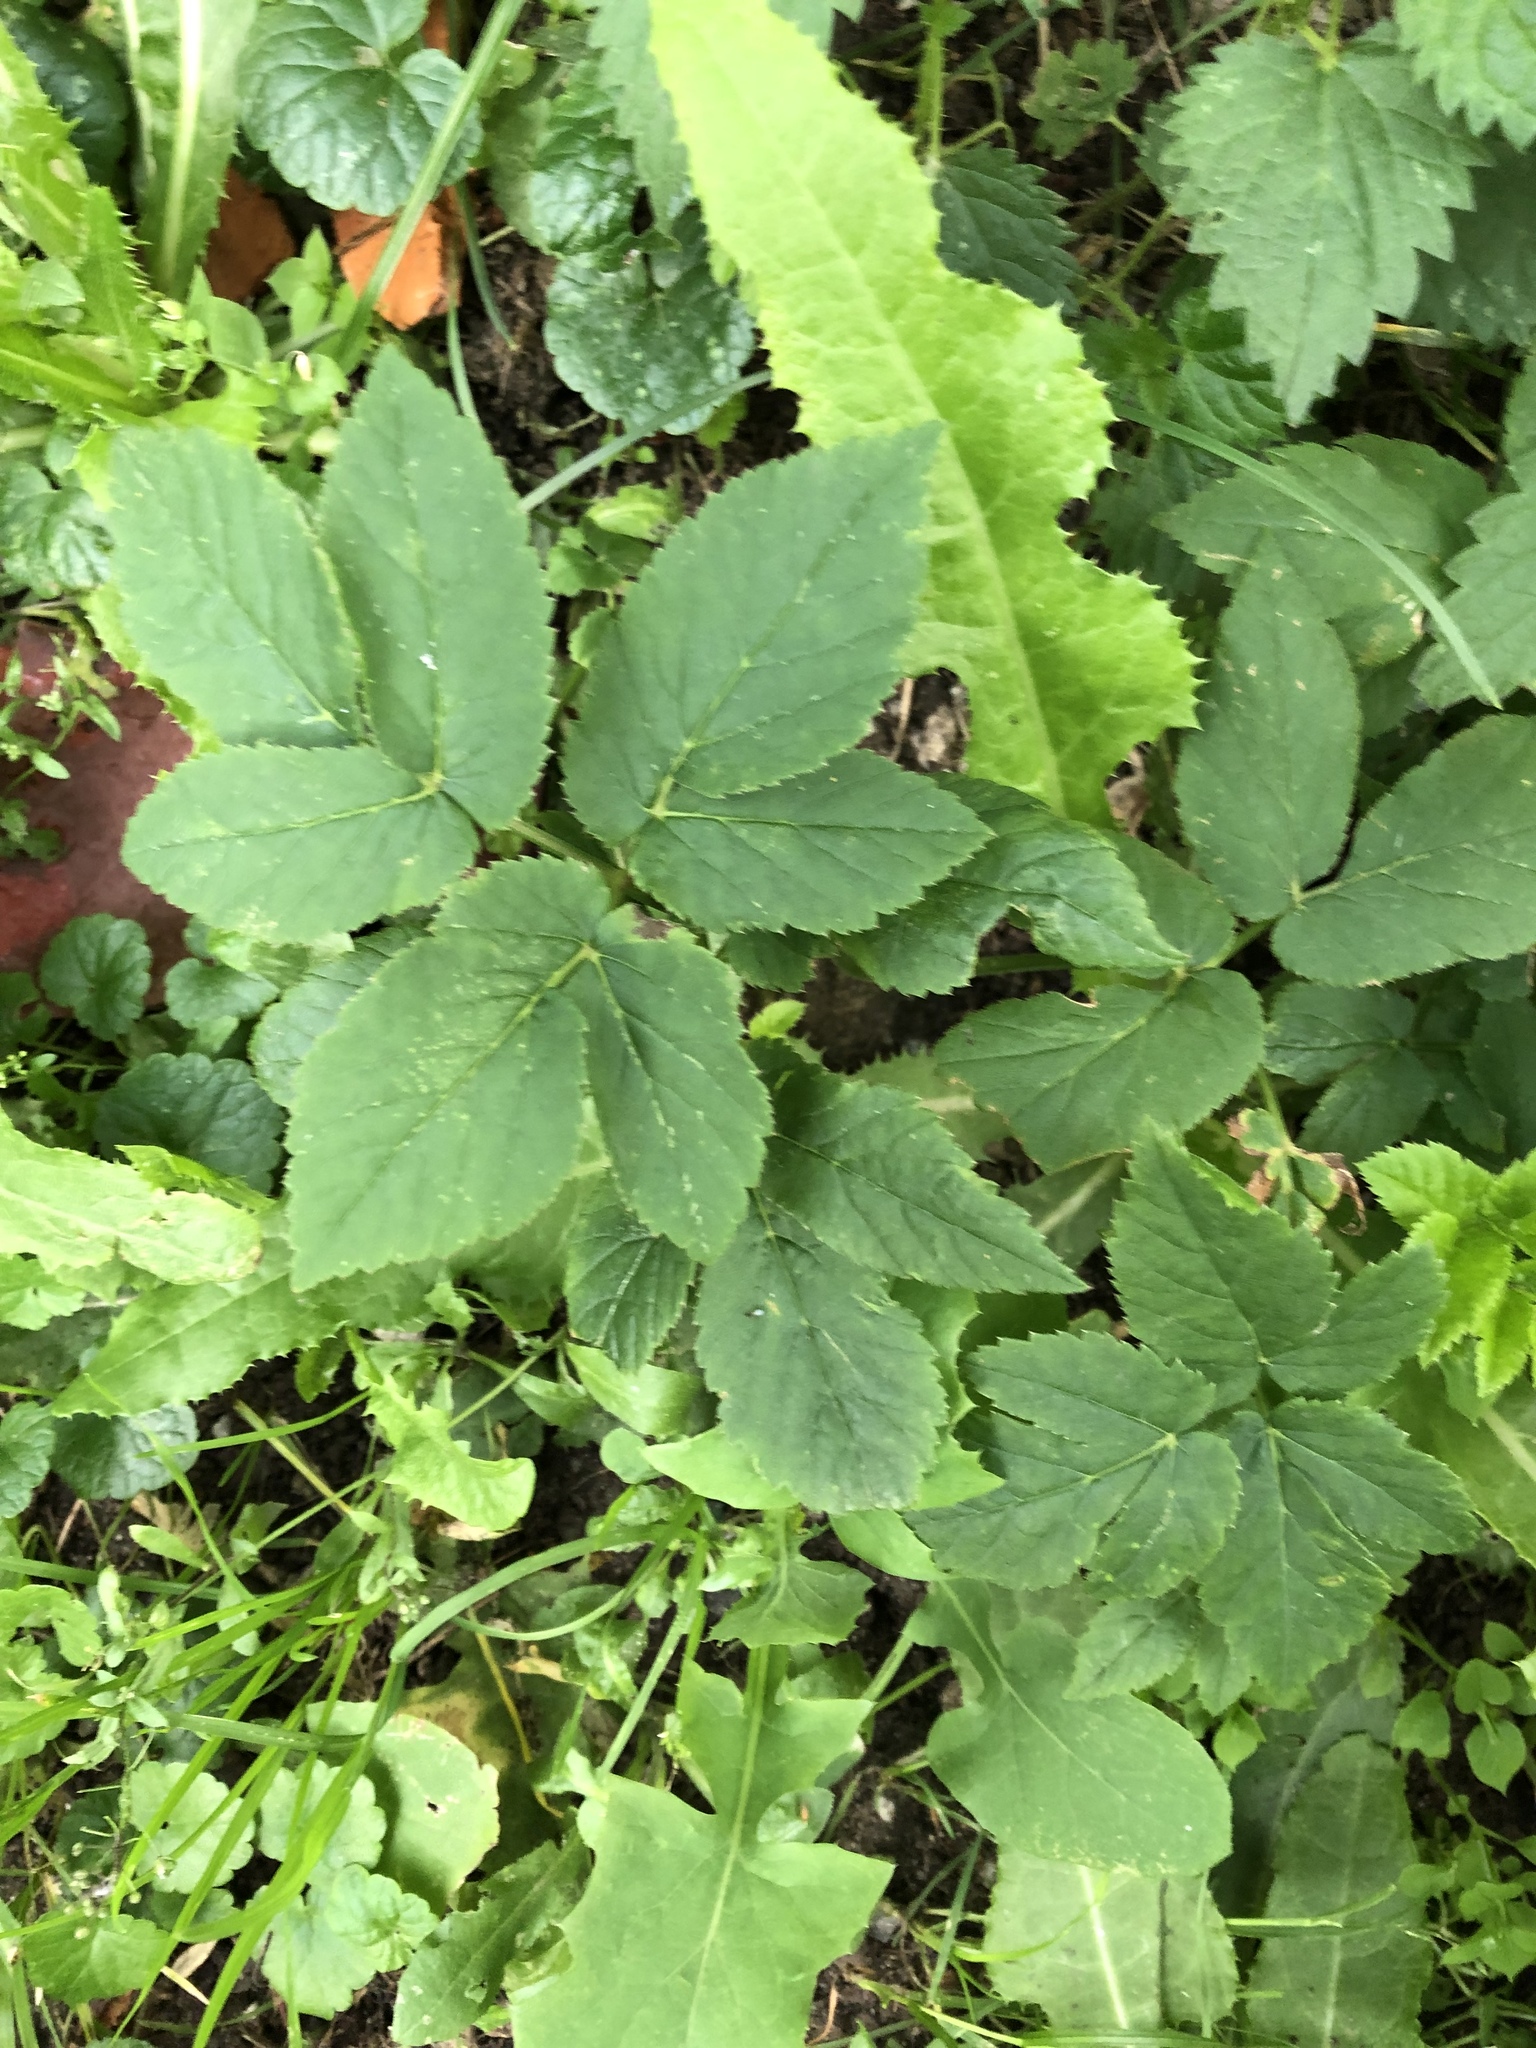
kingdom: Plantae
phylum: Tracheophyta
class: Magnoliopsida
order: Apiales
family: Apiaceae
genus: Aegopodium
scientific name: Aegopodium podagraria
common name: Ground-elder
